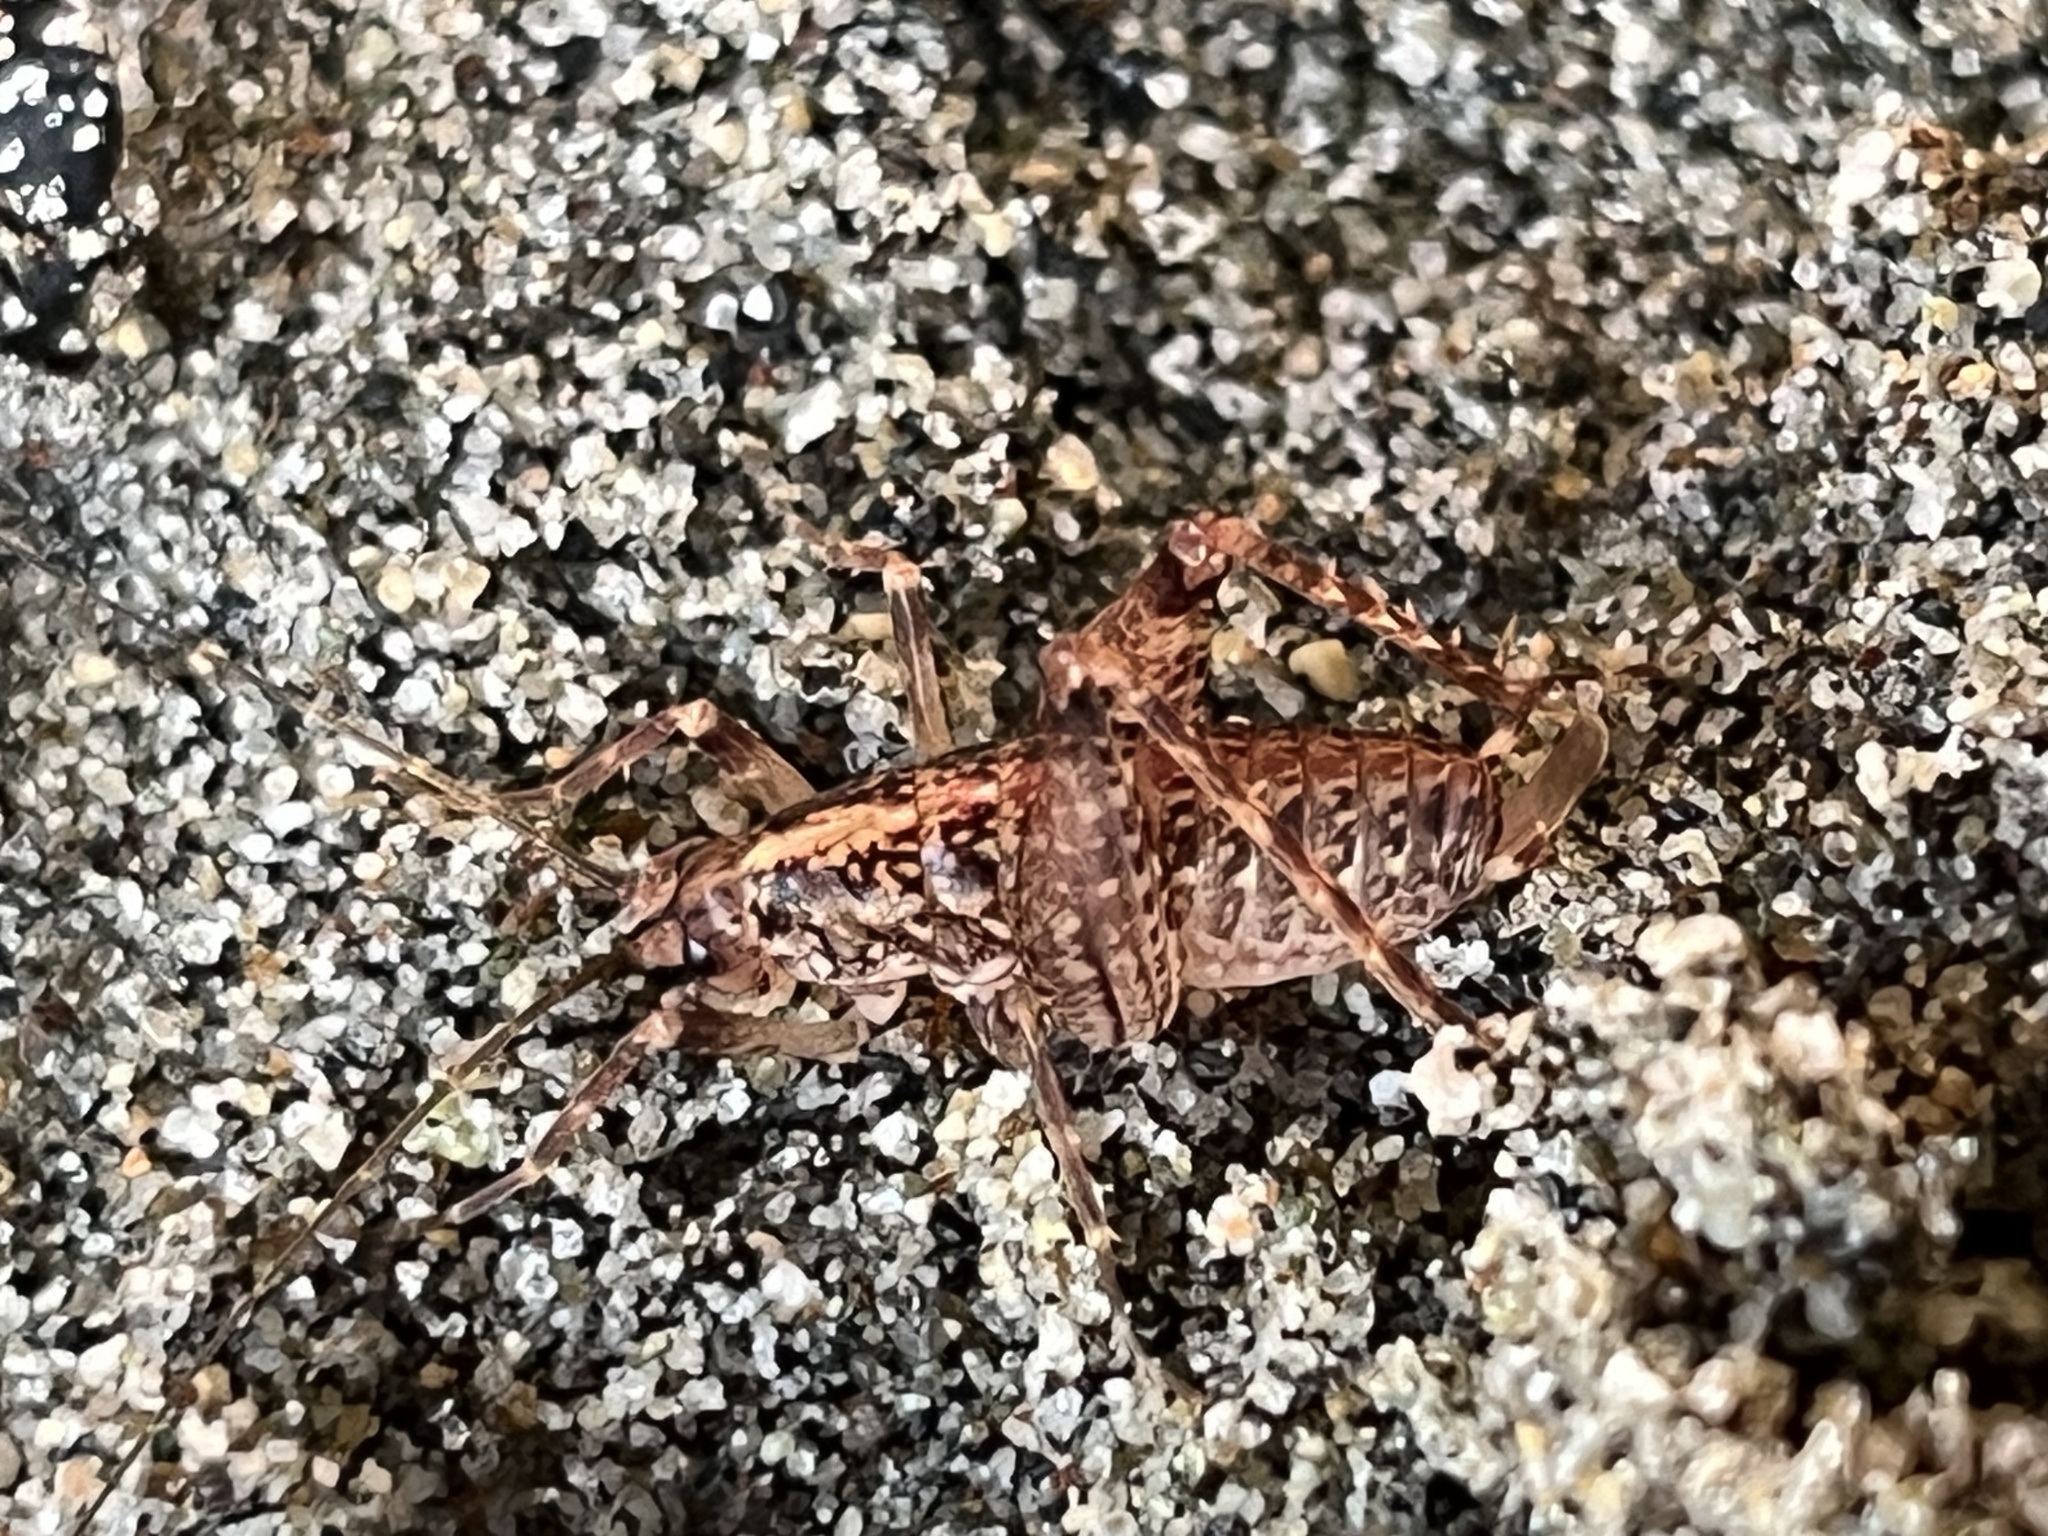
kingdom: Animalia
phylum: Arthropoda
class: Insecta
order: Orthoptera
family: Rhaphidophoridae
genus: Pristoceuthophilus
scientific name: Pristoceuthophilus celatus
